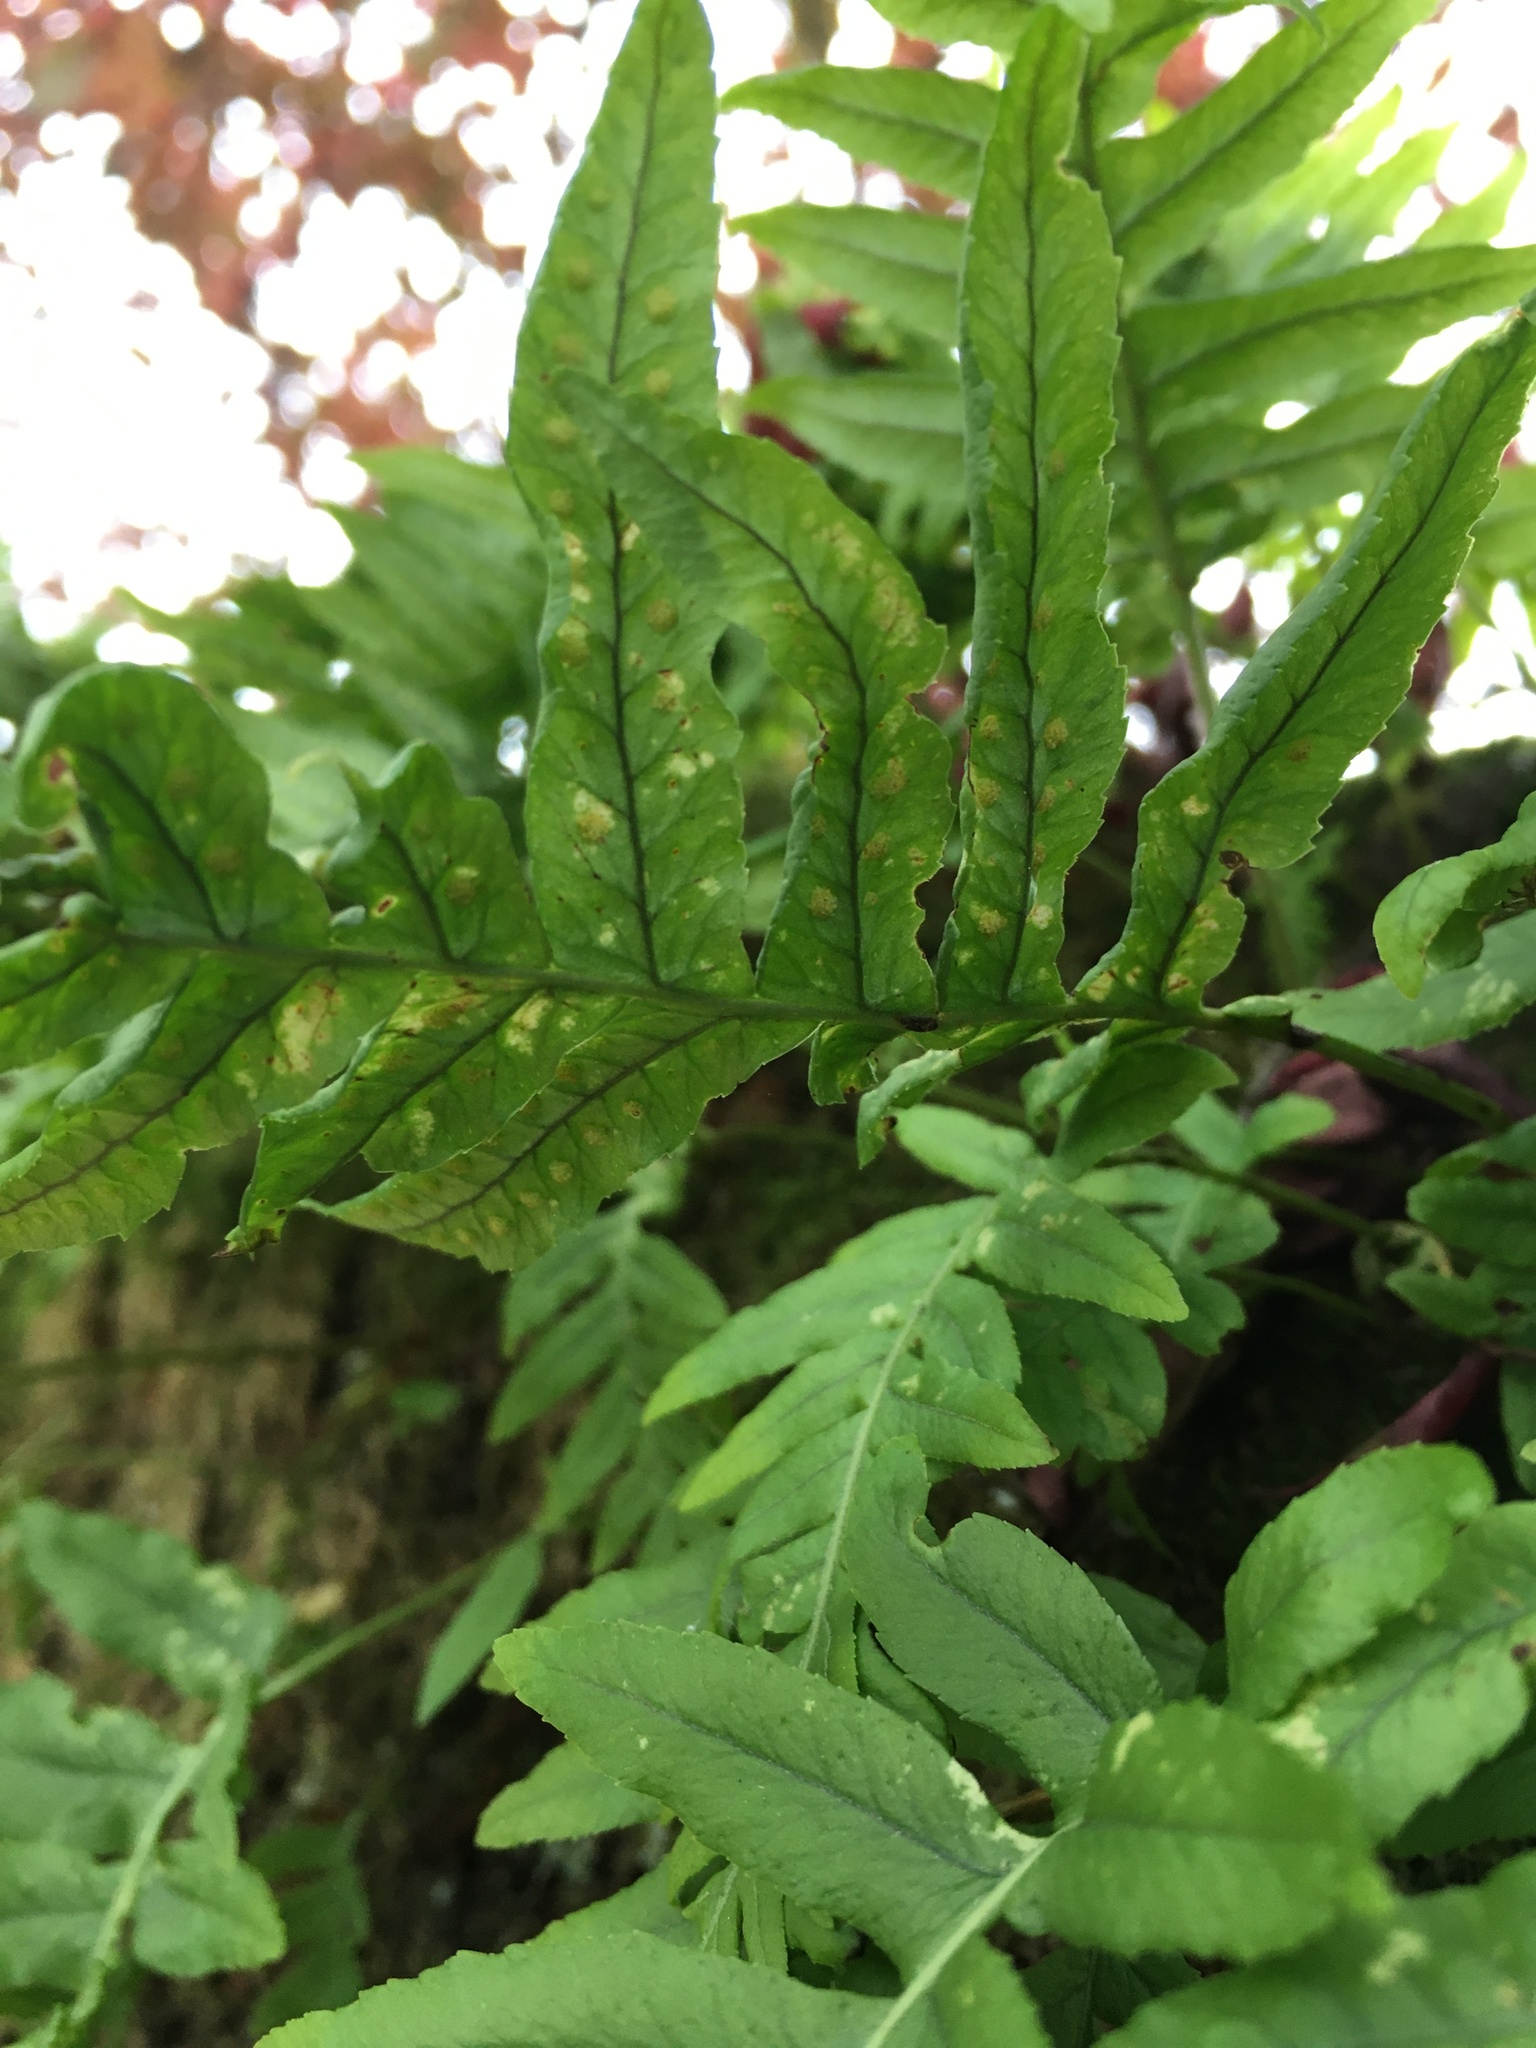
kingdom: Plantae
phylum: Tracheophyta
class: Polypodiopsida
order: Polypodiales
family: Polypodiaceae
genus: Polypodium
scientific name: Polypodium glycyrrhiza
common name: Licorice fern
